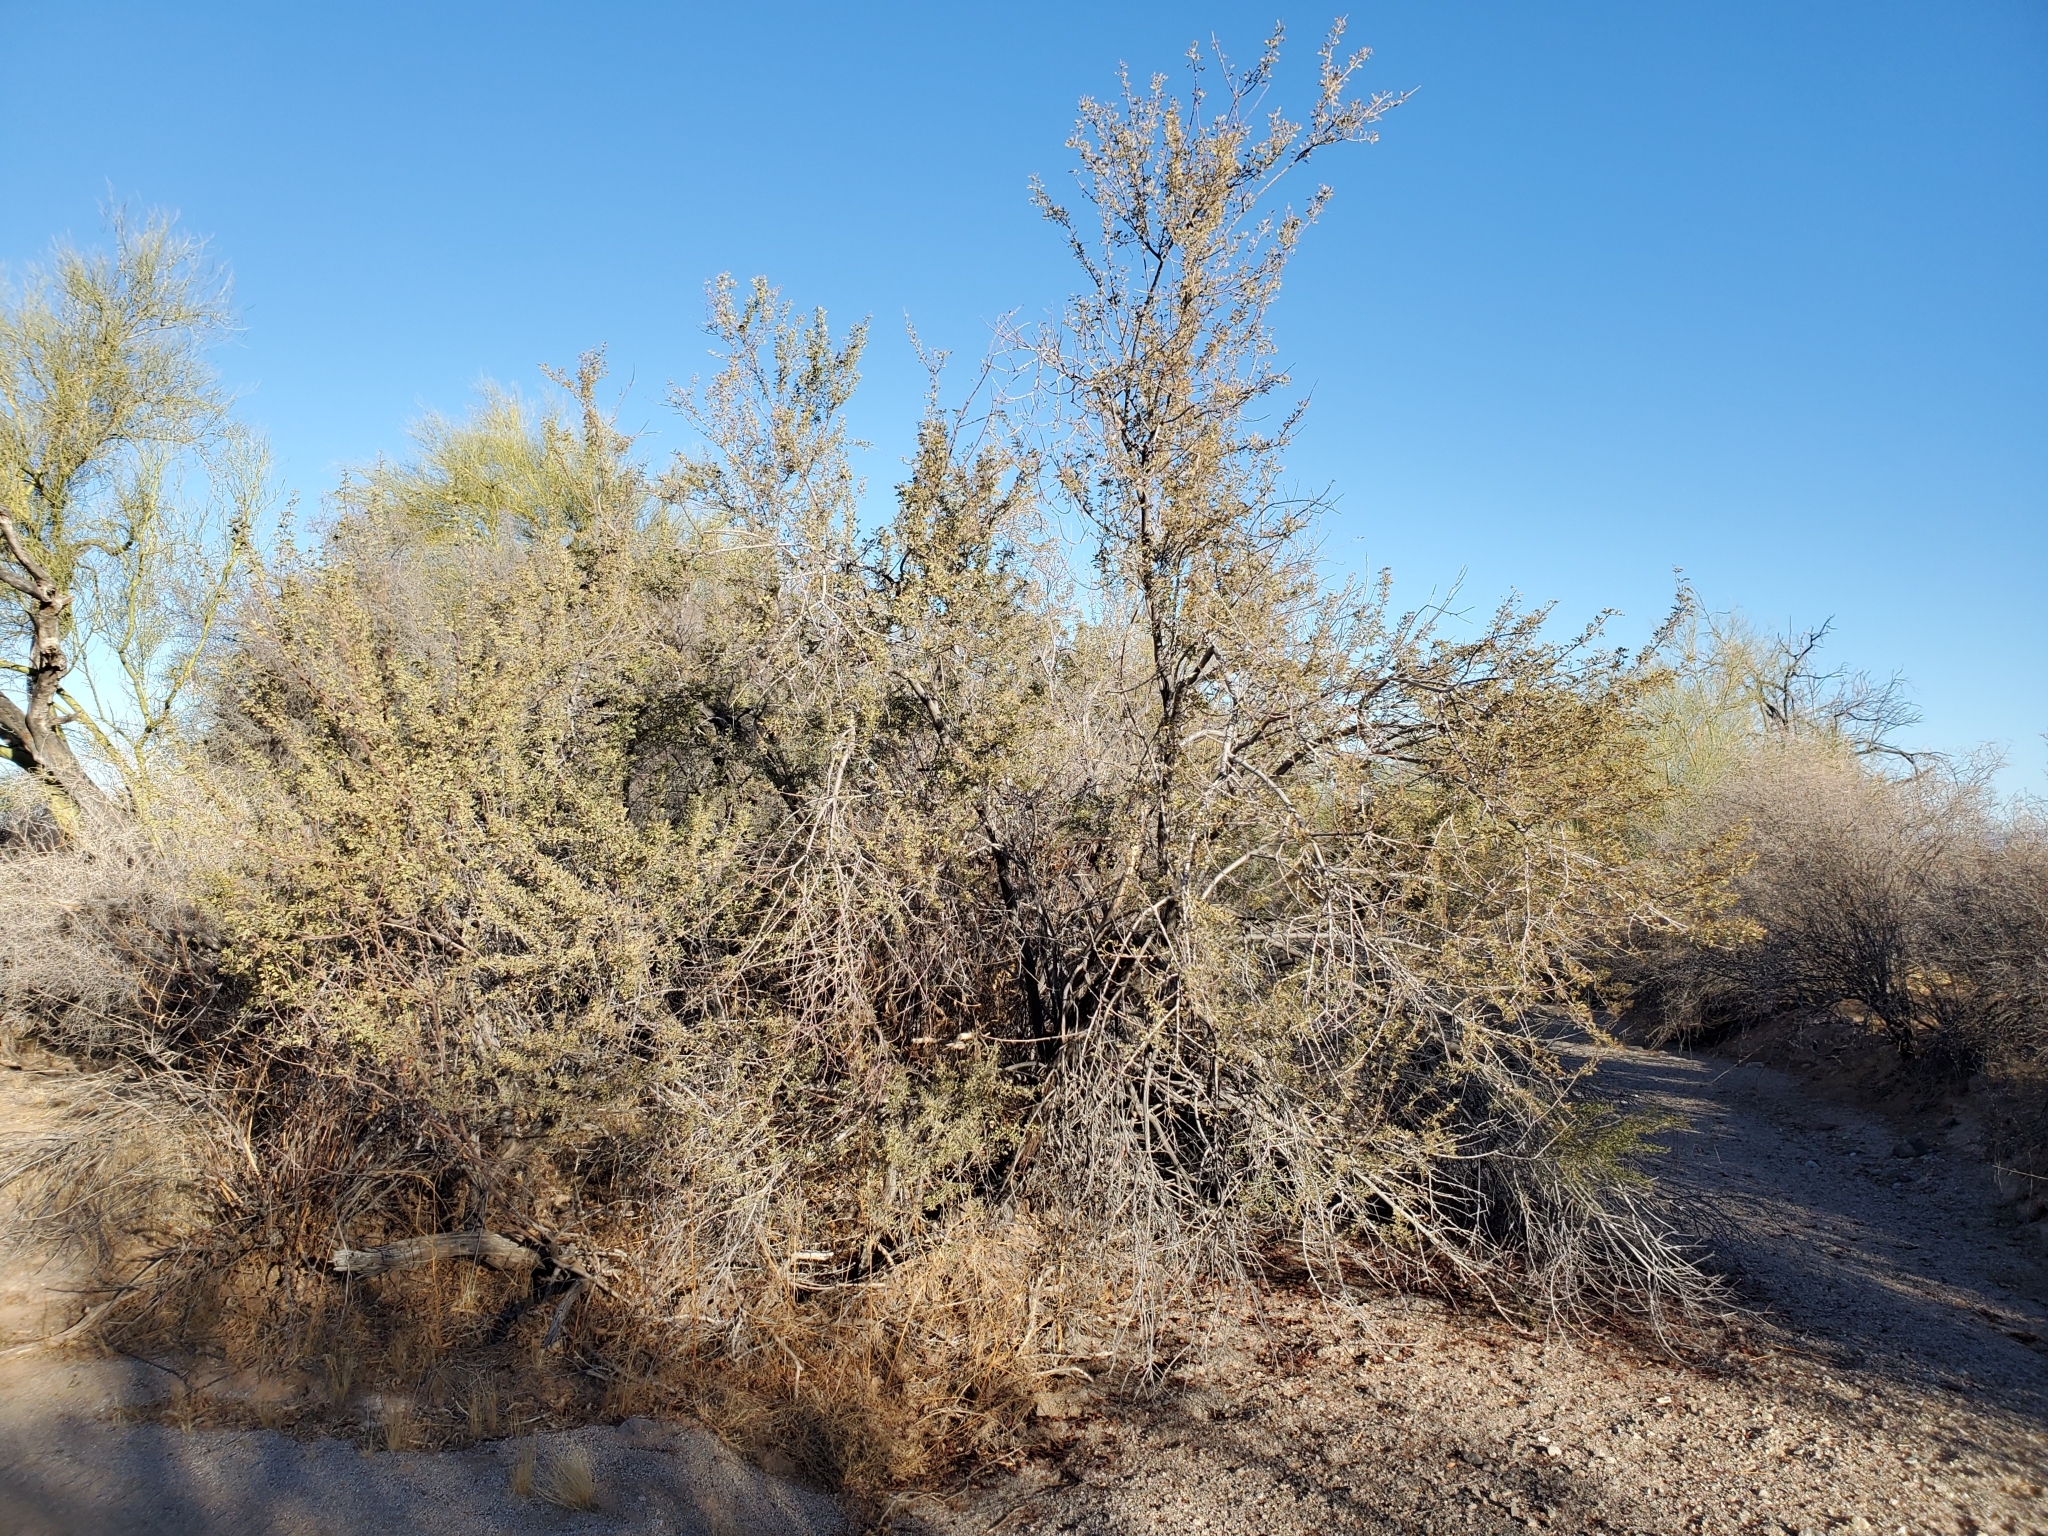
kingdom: Plantae
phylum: Tracheophyta
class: Magnoliopsida
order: Fabales
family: Fabaceae
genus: Senegalia
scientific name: Senegalia greggii
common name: Texas-mimosa
